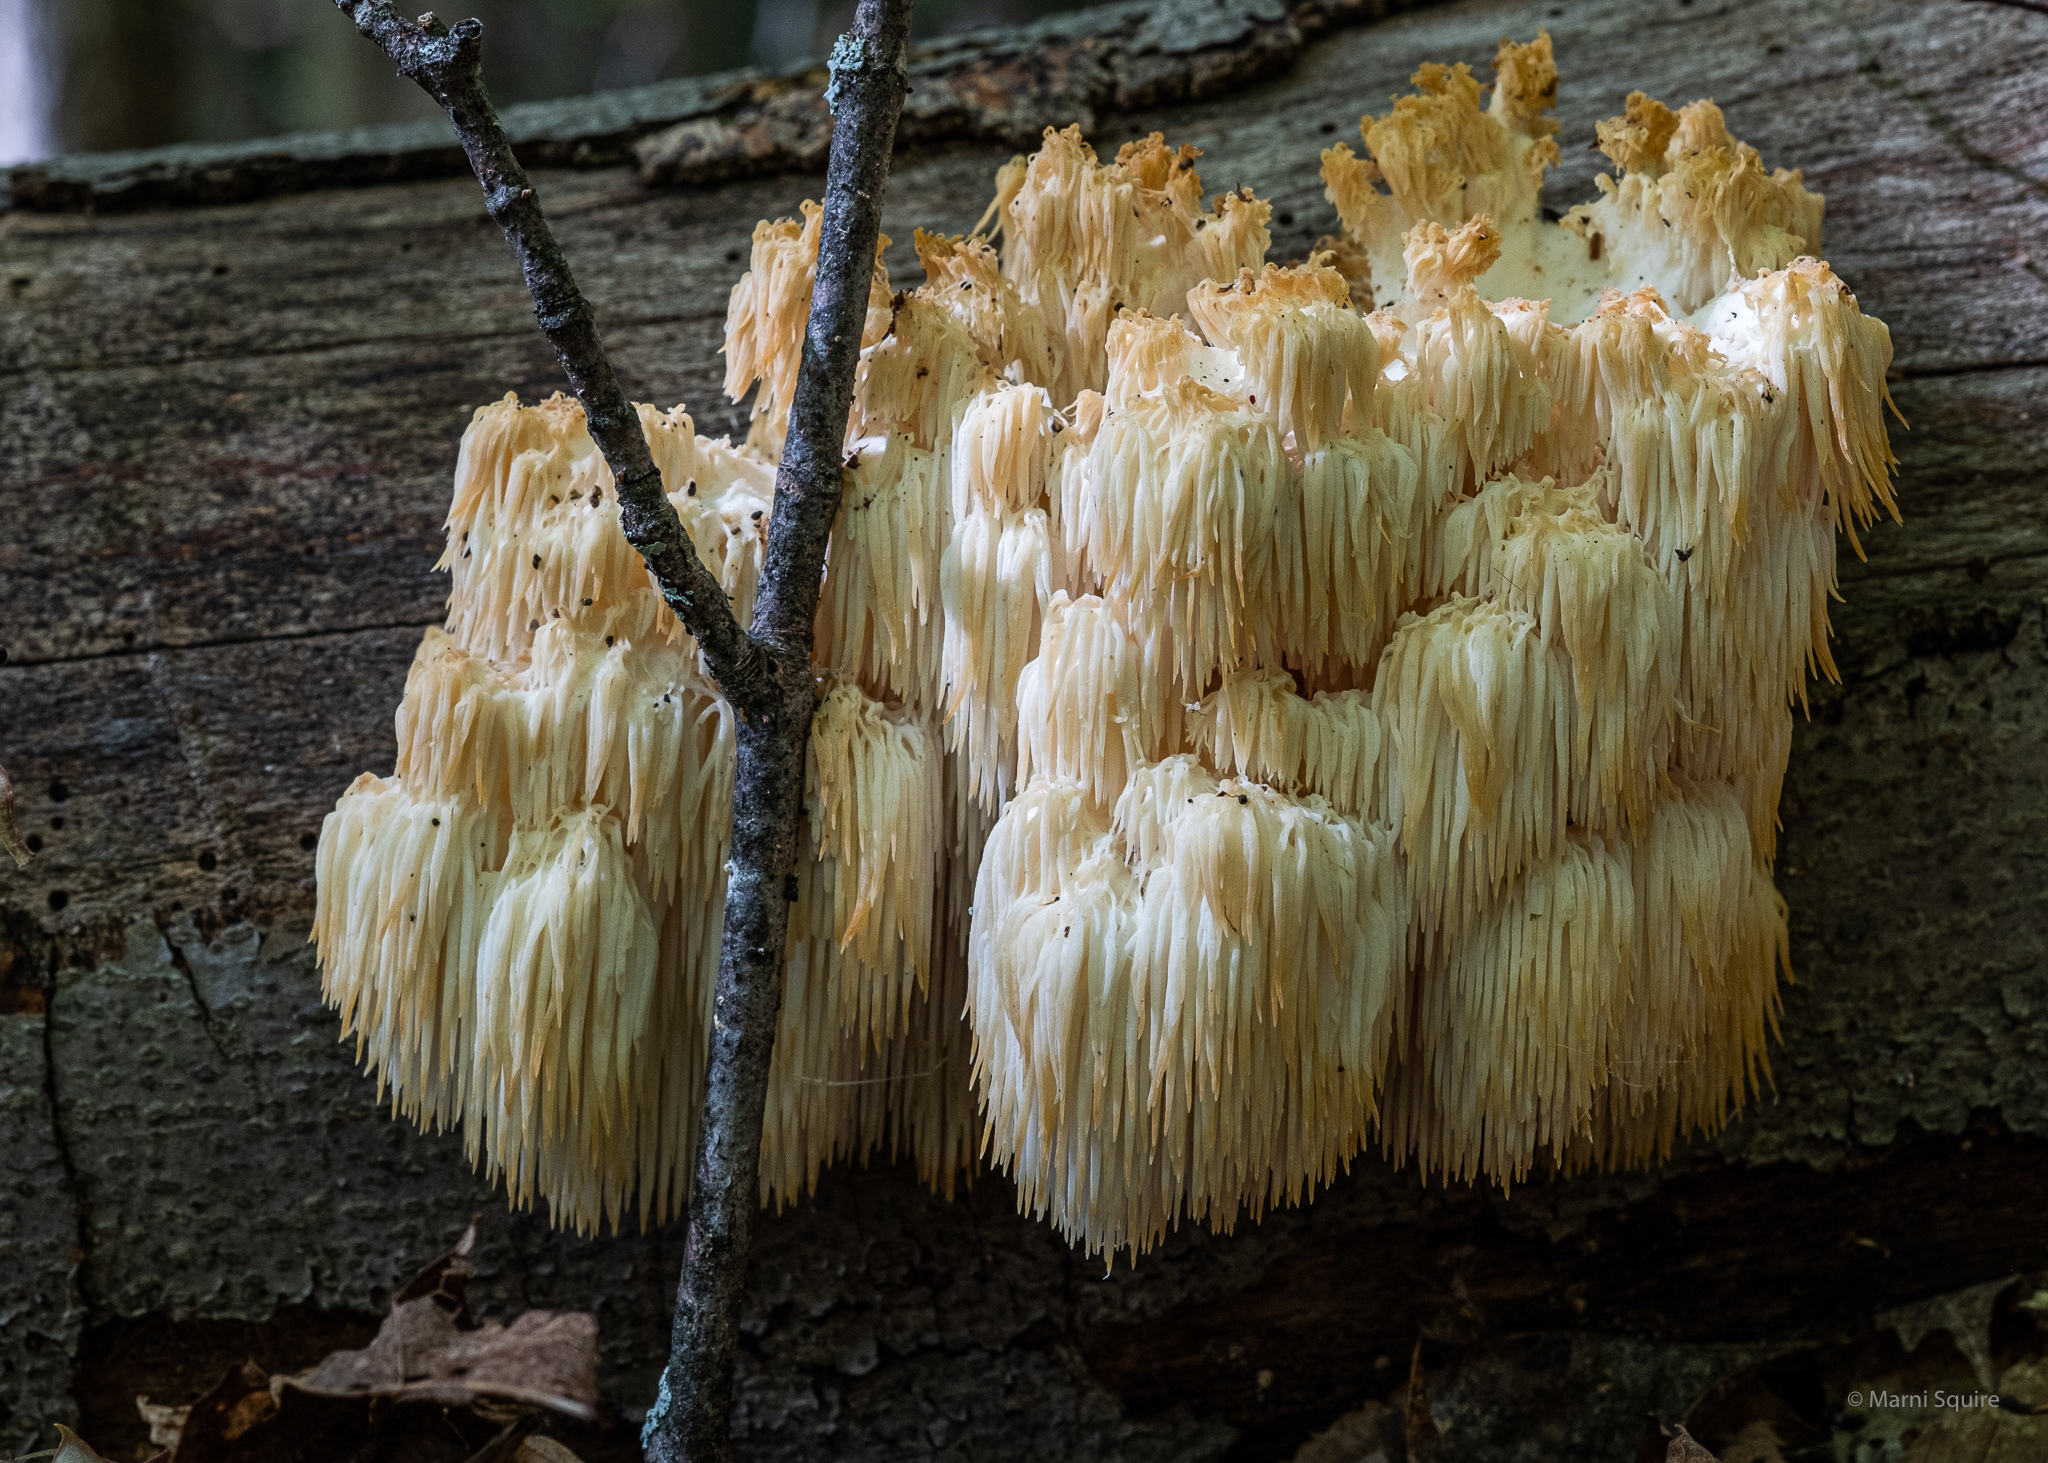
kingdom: Fungi
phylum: Basidiomycota
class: Agaricomycetes
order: Russulales
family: Hericiaceae
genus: Hericium
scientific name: Hericium americanum
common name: Bear's head tooth
